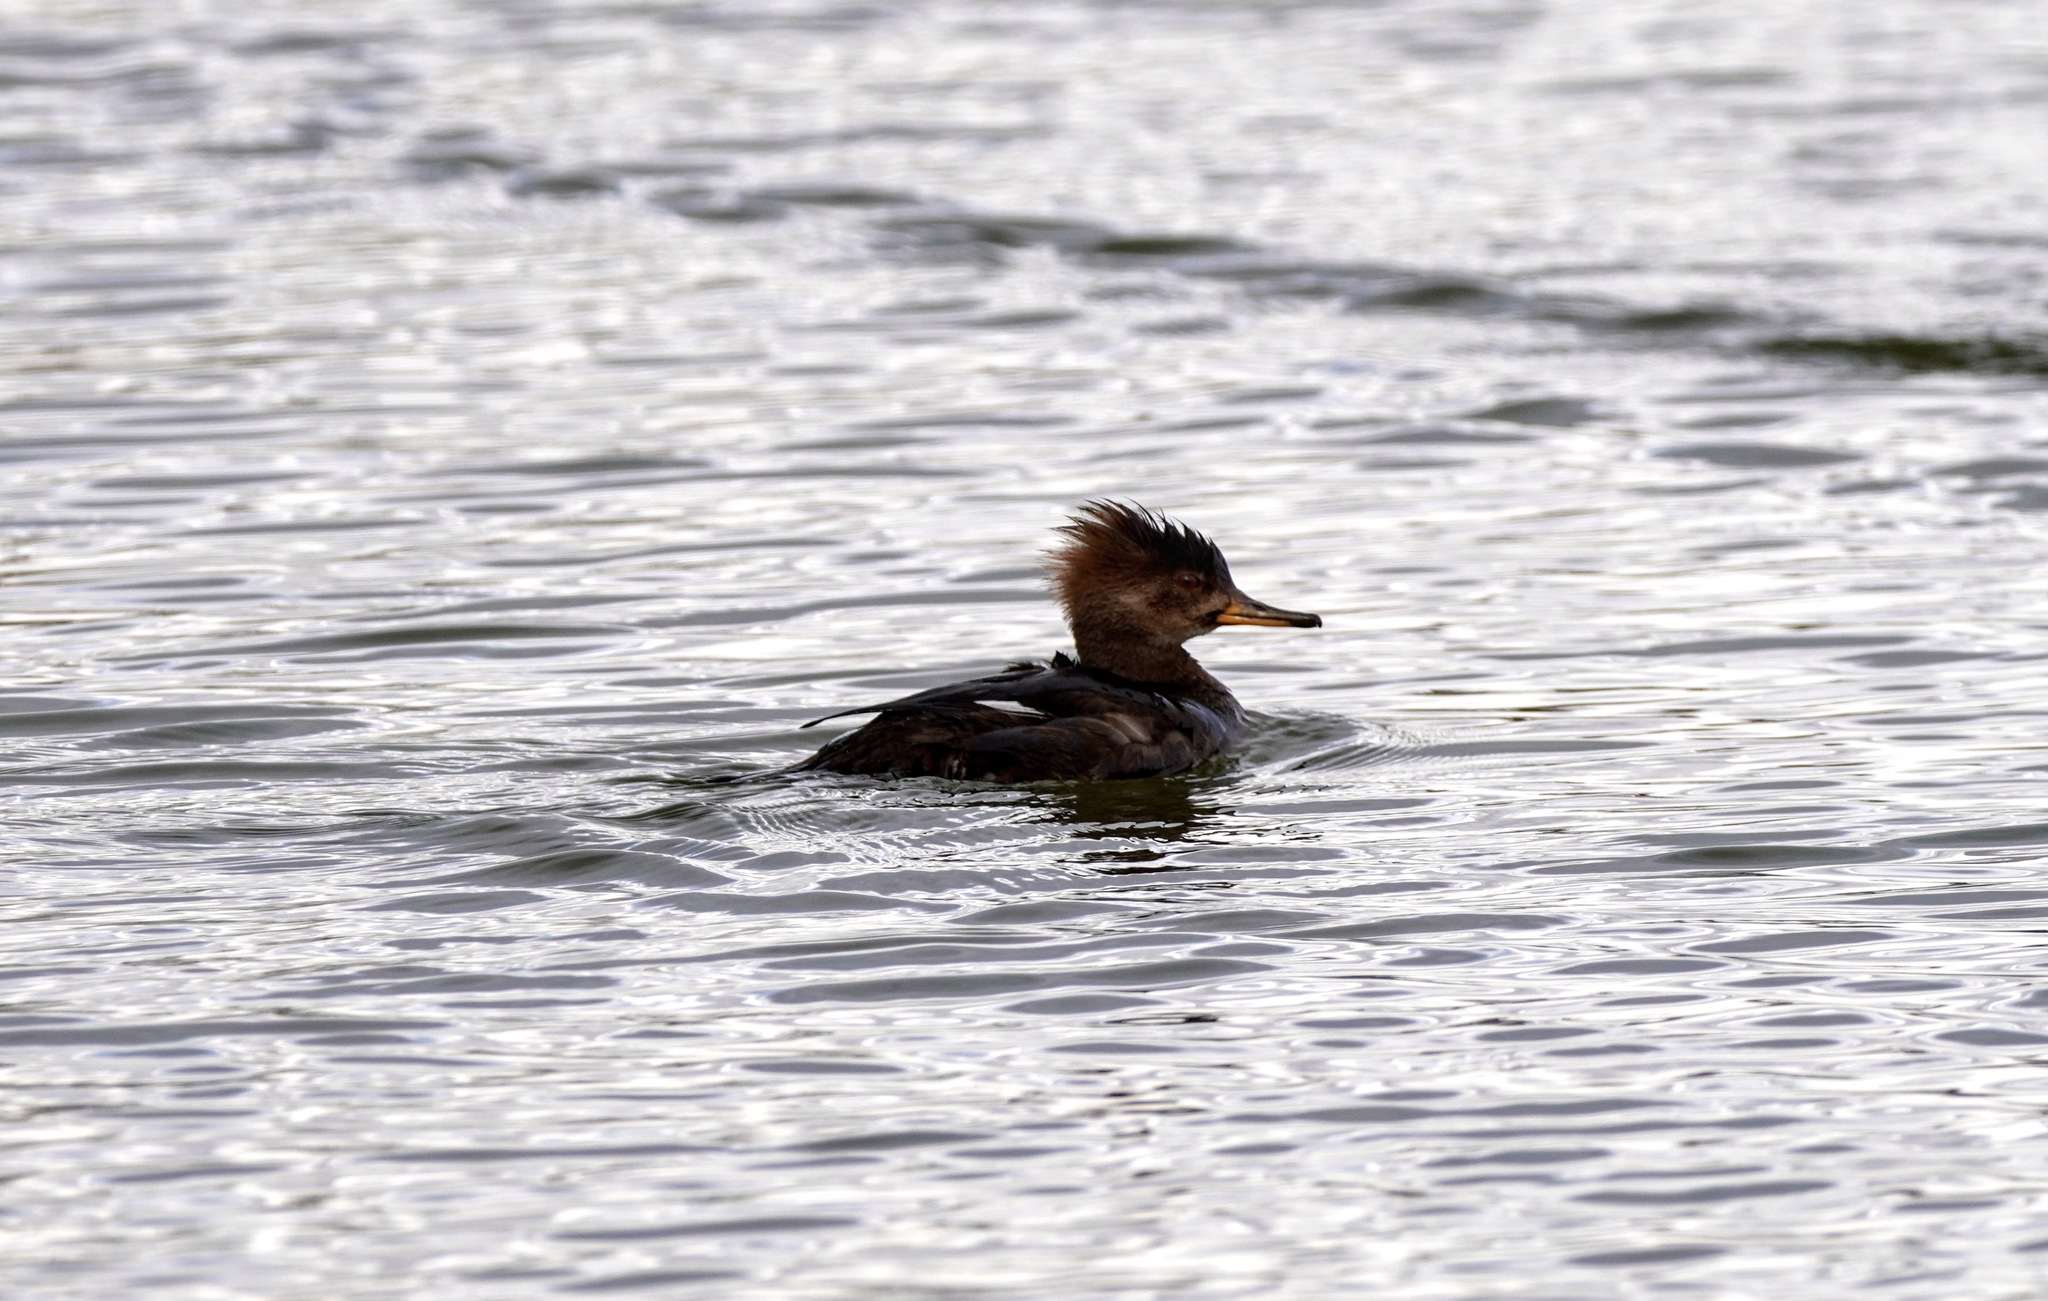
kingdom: Animalia
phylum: Chordata
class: Aves
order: Anseriformes
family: Anatidae
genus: Lophodytes
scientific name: Lophodytes cucullatus
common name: Hooded merganser
